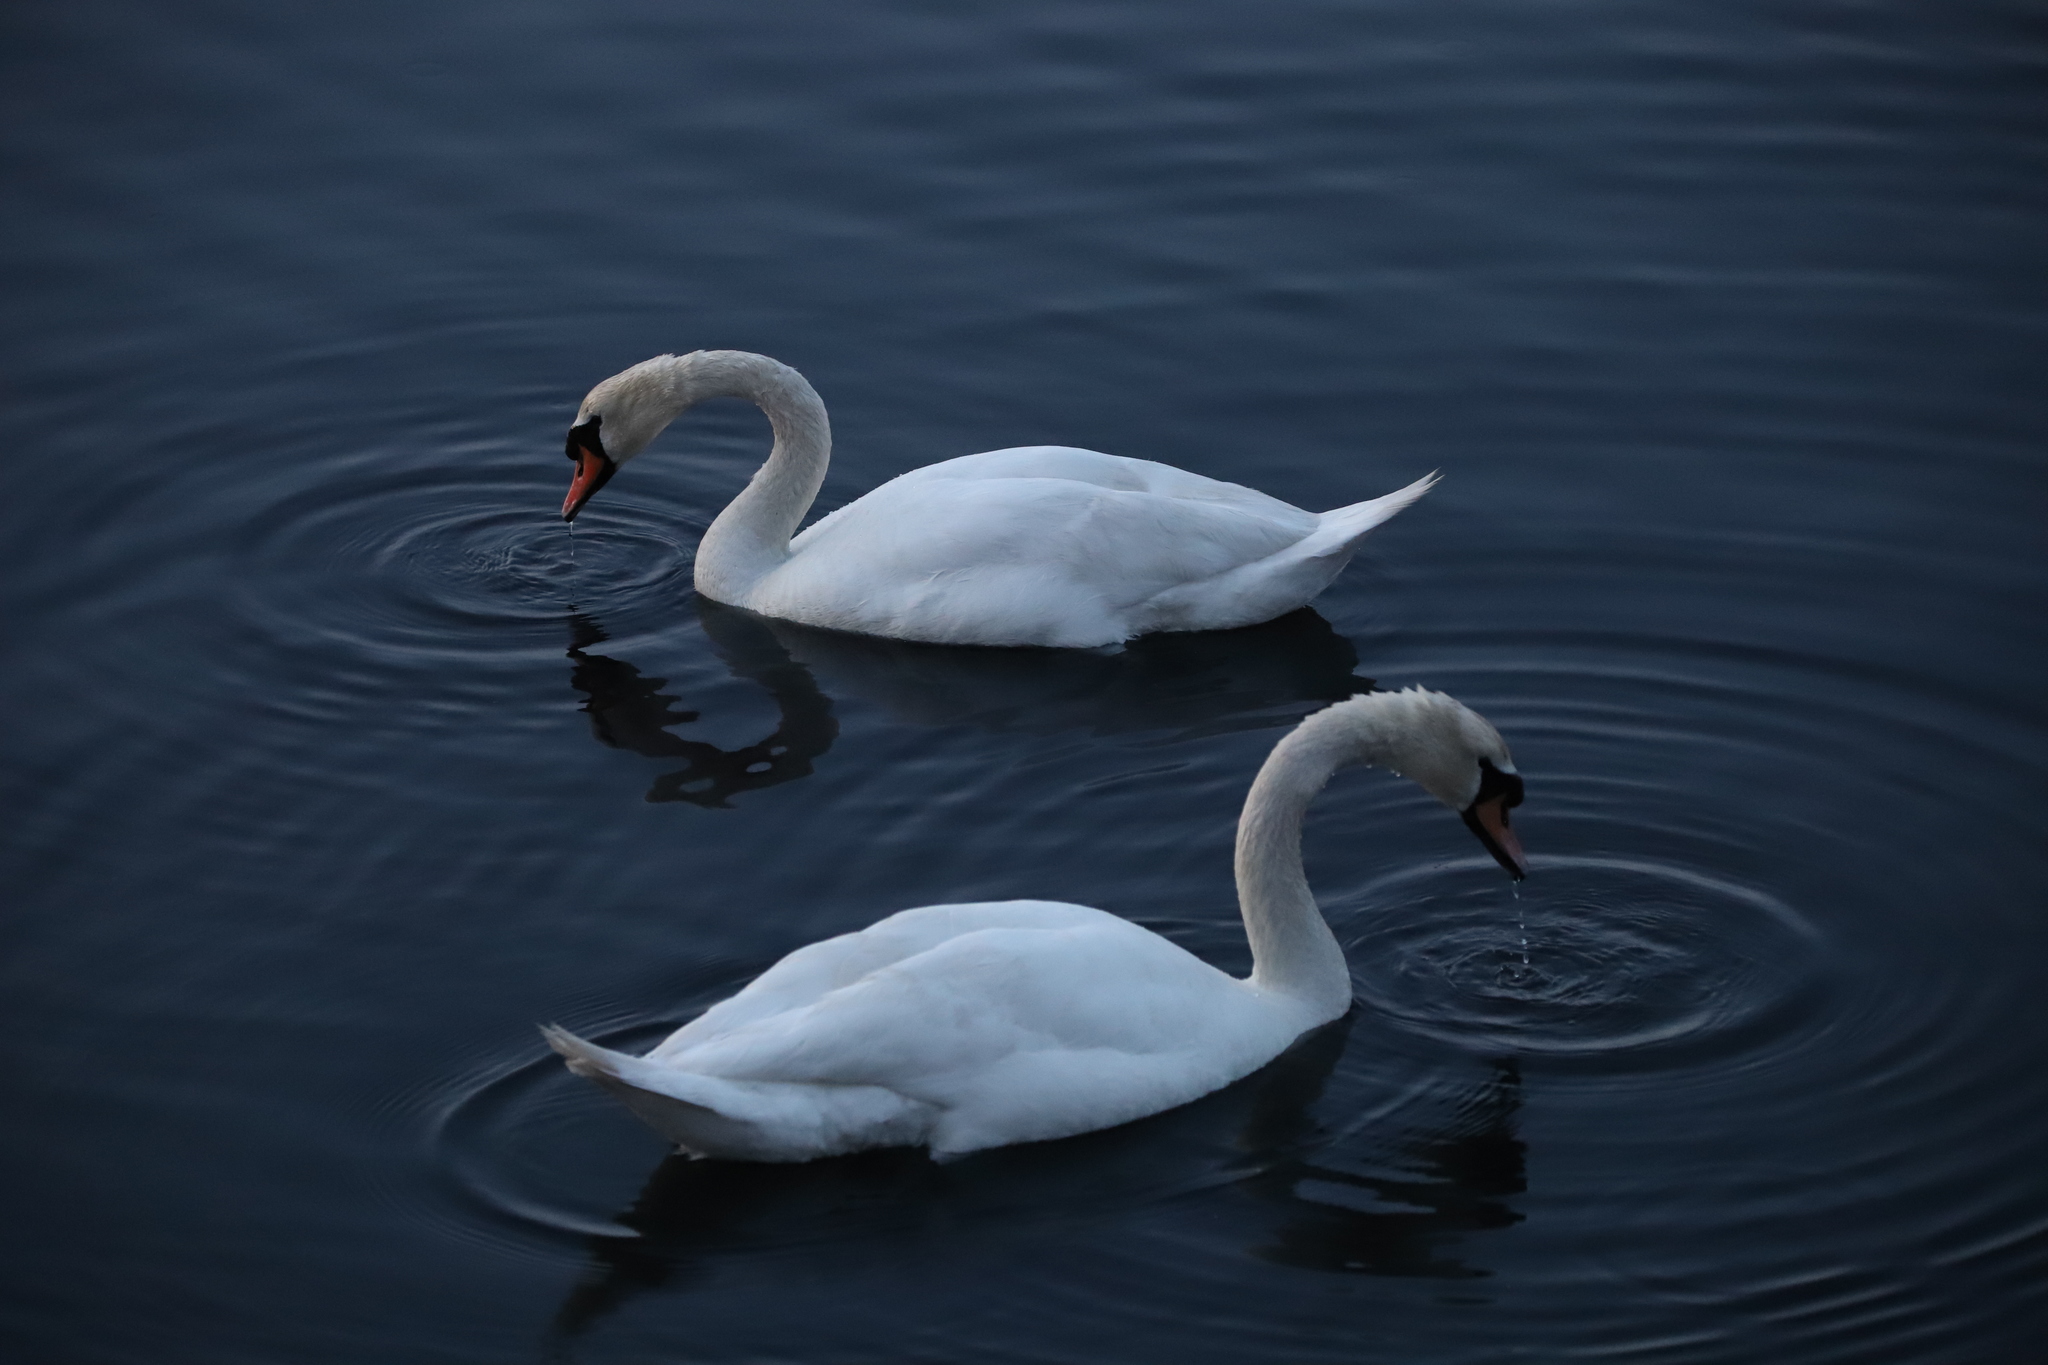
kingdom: Animalia
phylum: Chordata
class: Aves
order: Anseriformes
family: Anatidae
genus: Cygnus
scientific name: Cygnus olor
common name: Mute swan
